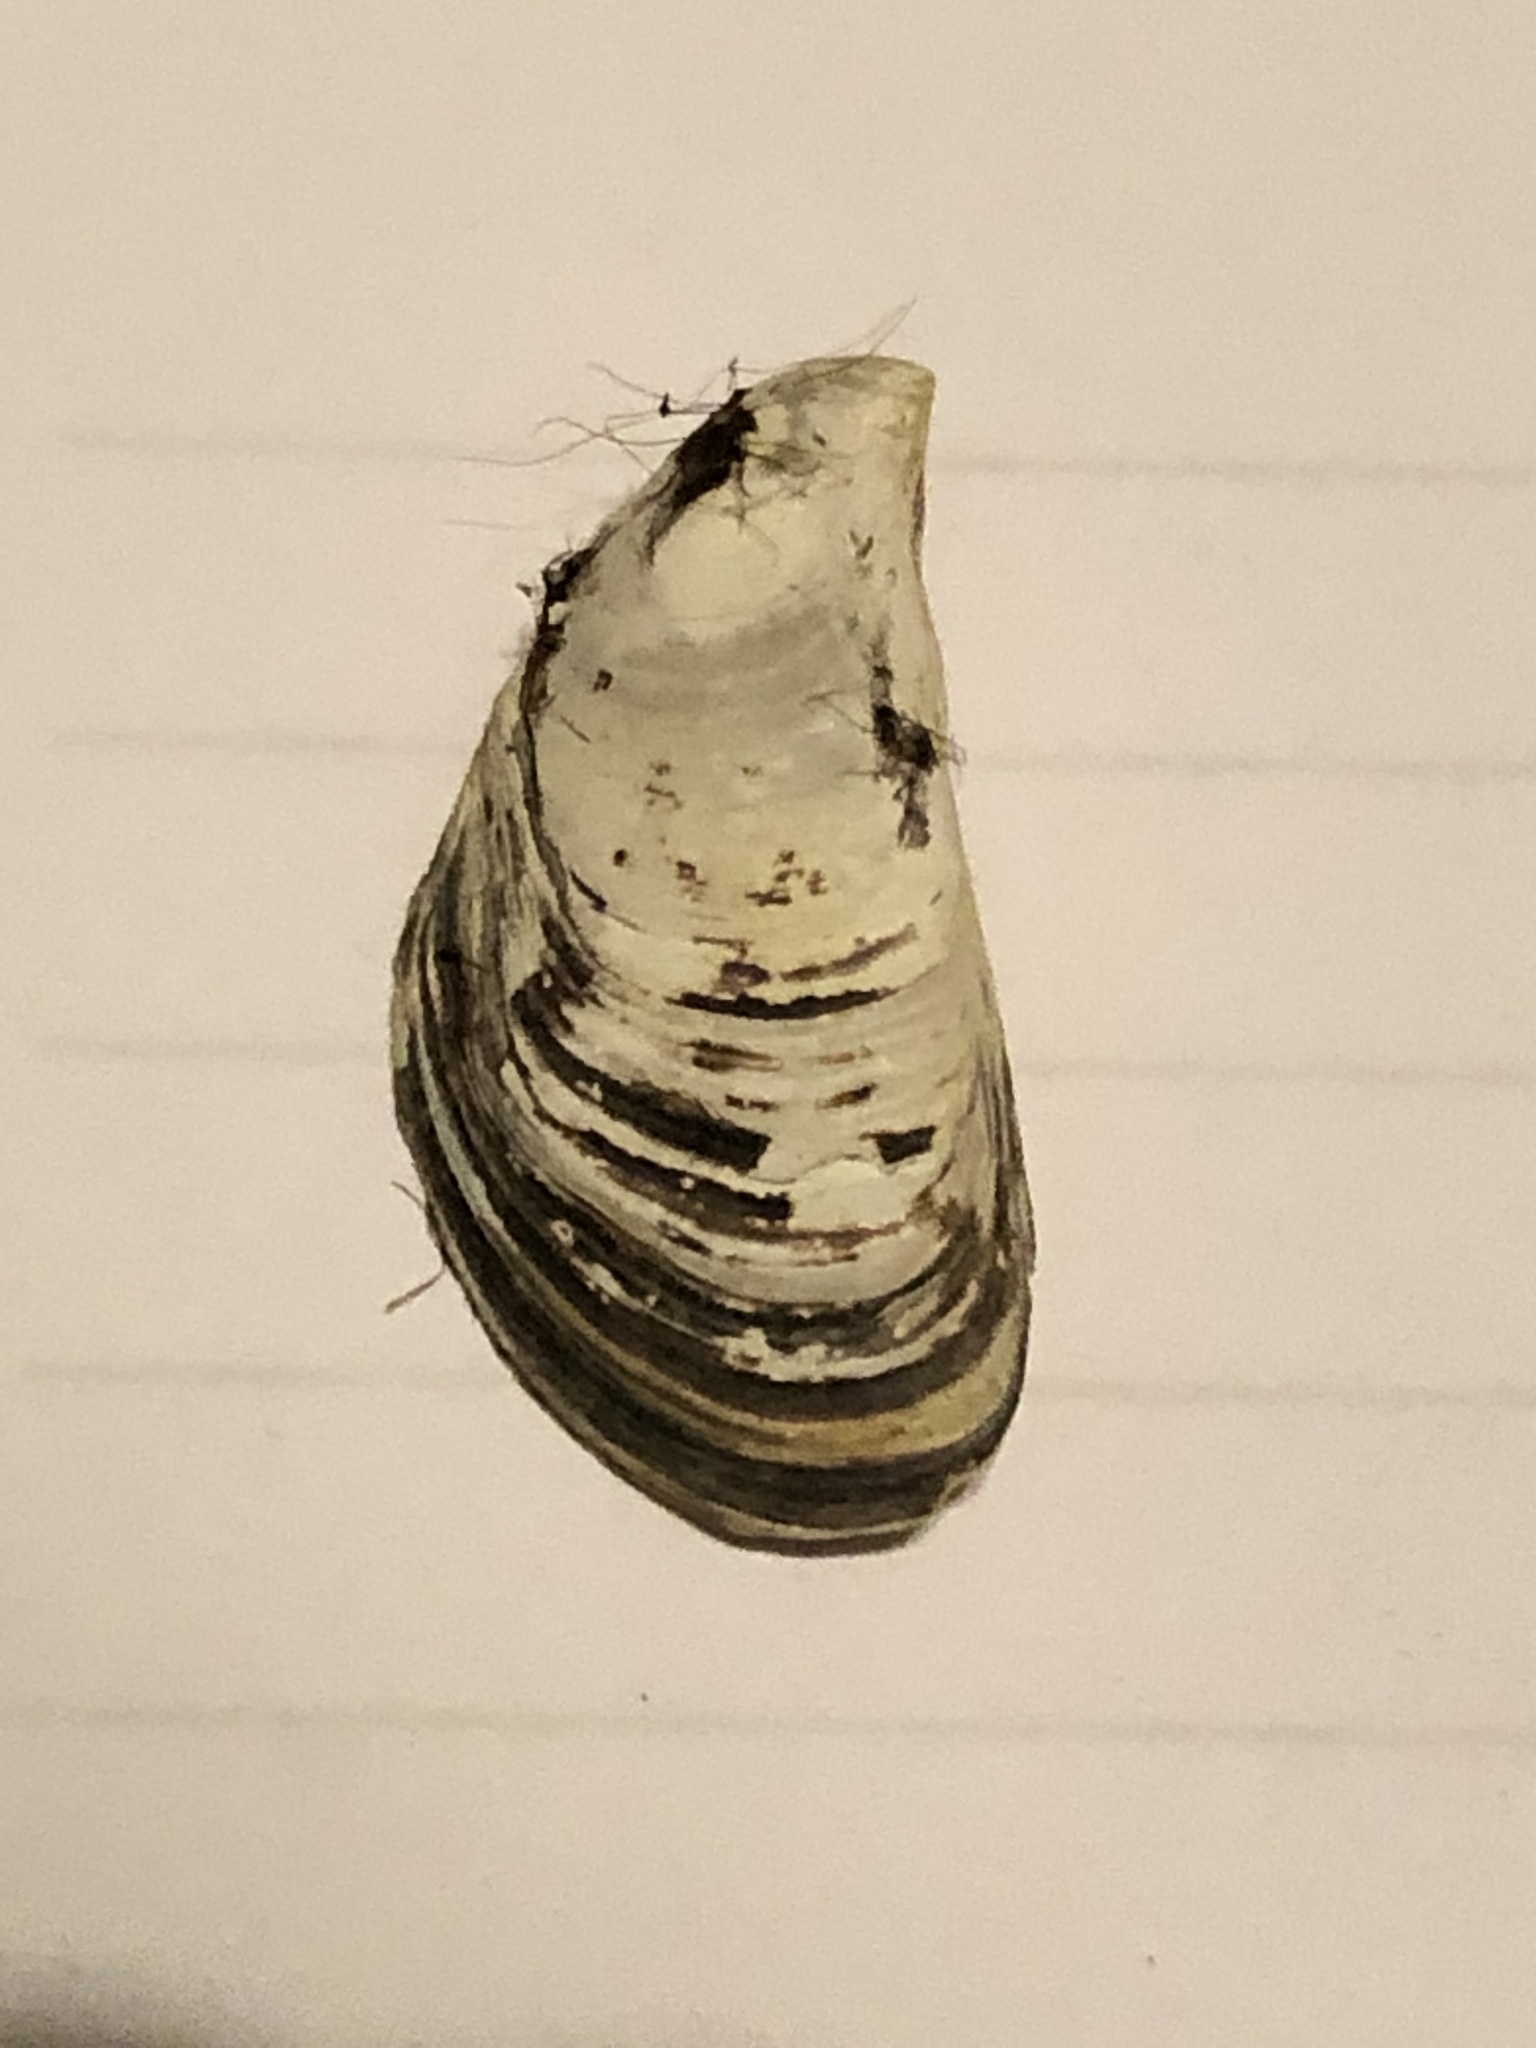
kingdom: Animalia
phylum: Mollusca
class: Bivalvia
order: Myida
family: Dreissenidae
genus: Dreissena
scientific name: Dreissena bugensis
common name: Quagga mussel
